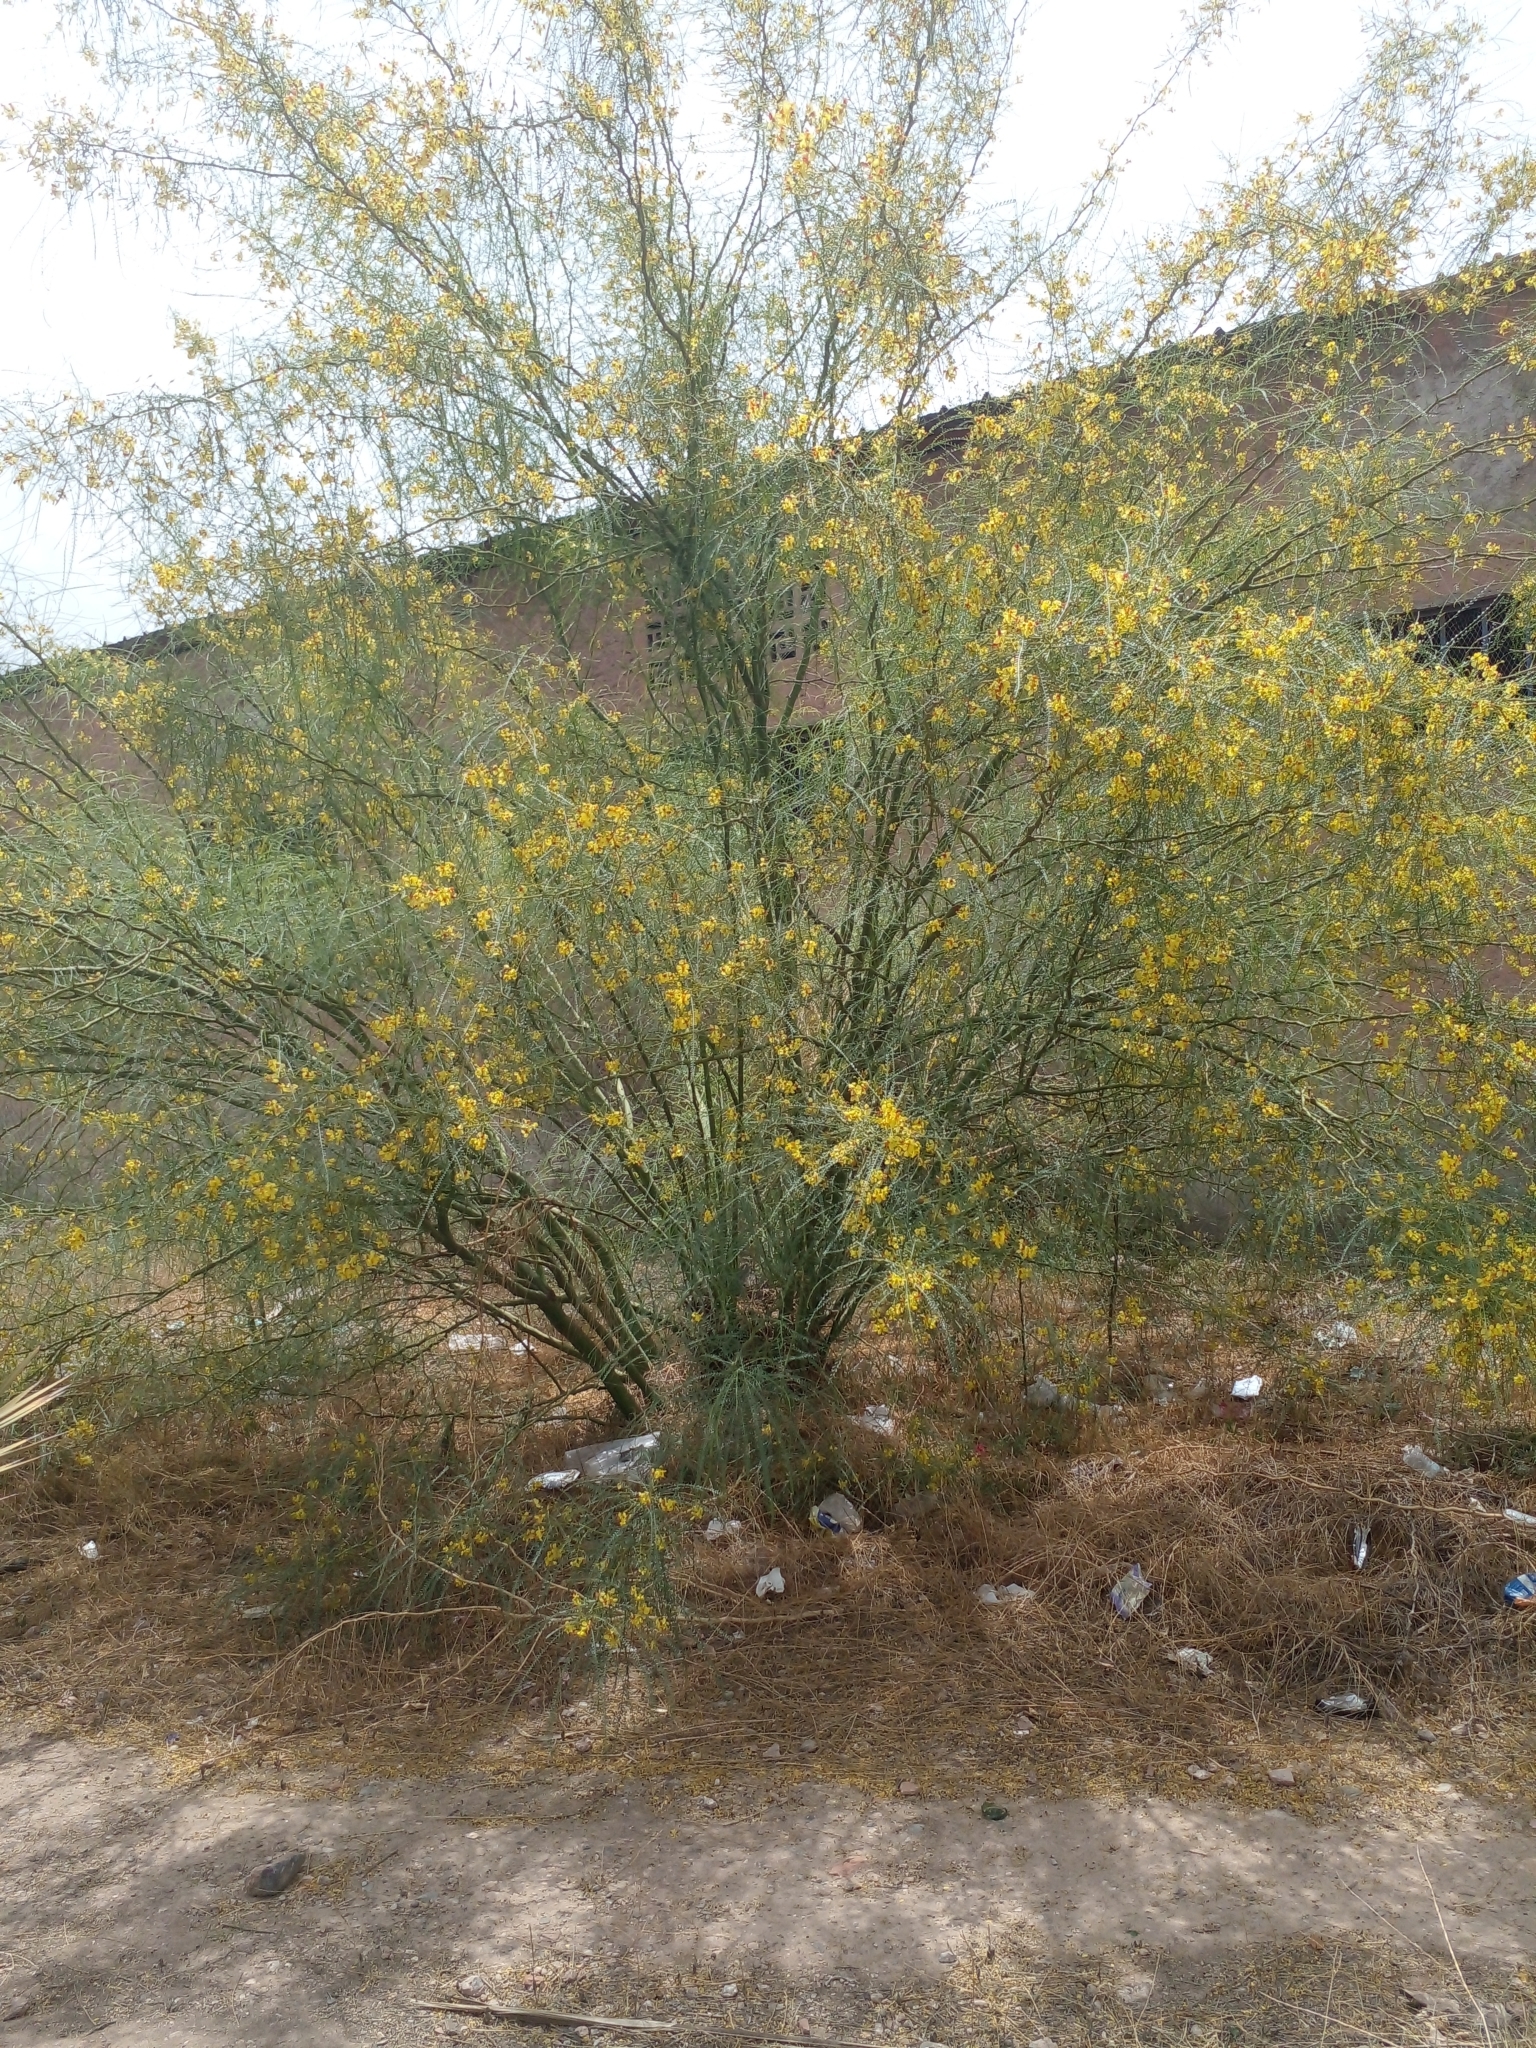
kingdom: Plantae
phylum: Tracheophyta
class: Magnoliopsida
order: Fabales
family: Fabaceae
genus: Parkinsonia
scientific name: Parkinsonia aculeata
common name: Jerusalem thorn
